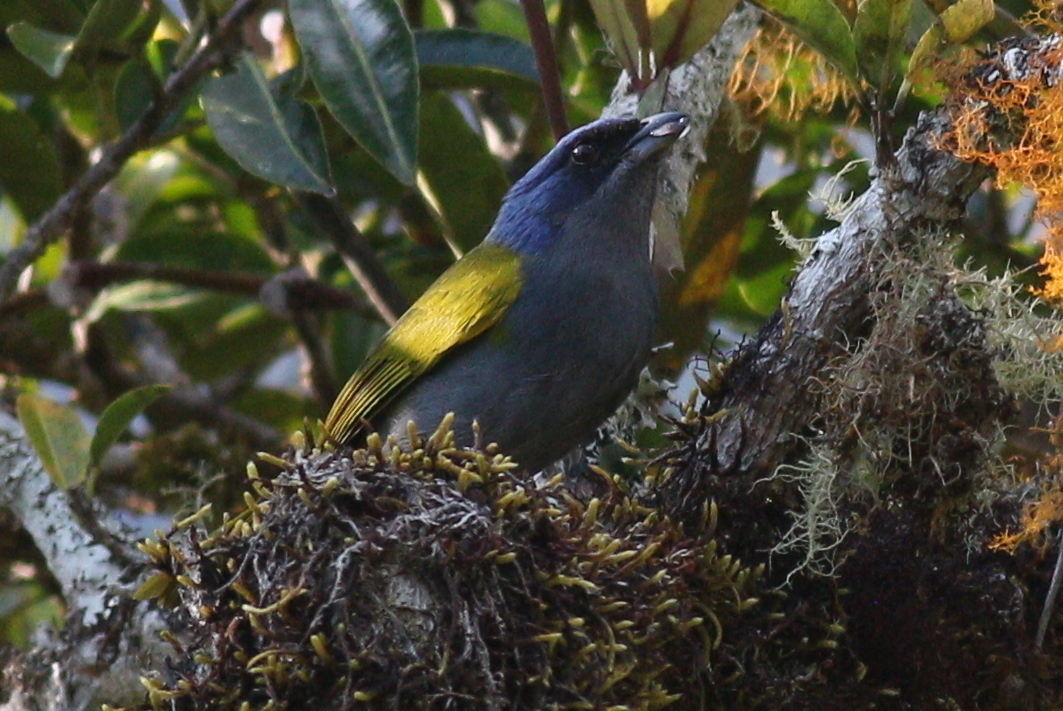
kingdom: Animalia
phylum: Chordata
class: Aves
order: Passeriformes
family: Thraupidae
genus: Sporathraupis
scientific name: Sporathraupis cyanocephala
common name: Blue-capped tanager
